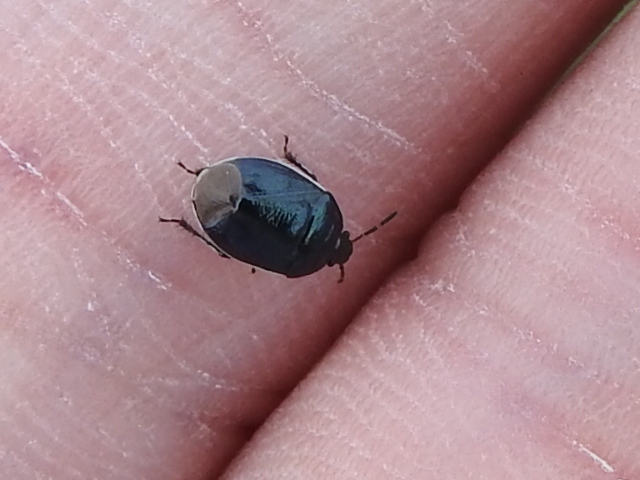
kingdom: Animalia
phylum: Arthropoda
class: Insecta
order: Hemiptera
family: Cydnidae
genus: Sehirus
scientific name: Sehirus cinctus
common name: White-margined burrower bug
